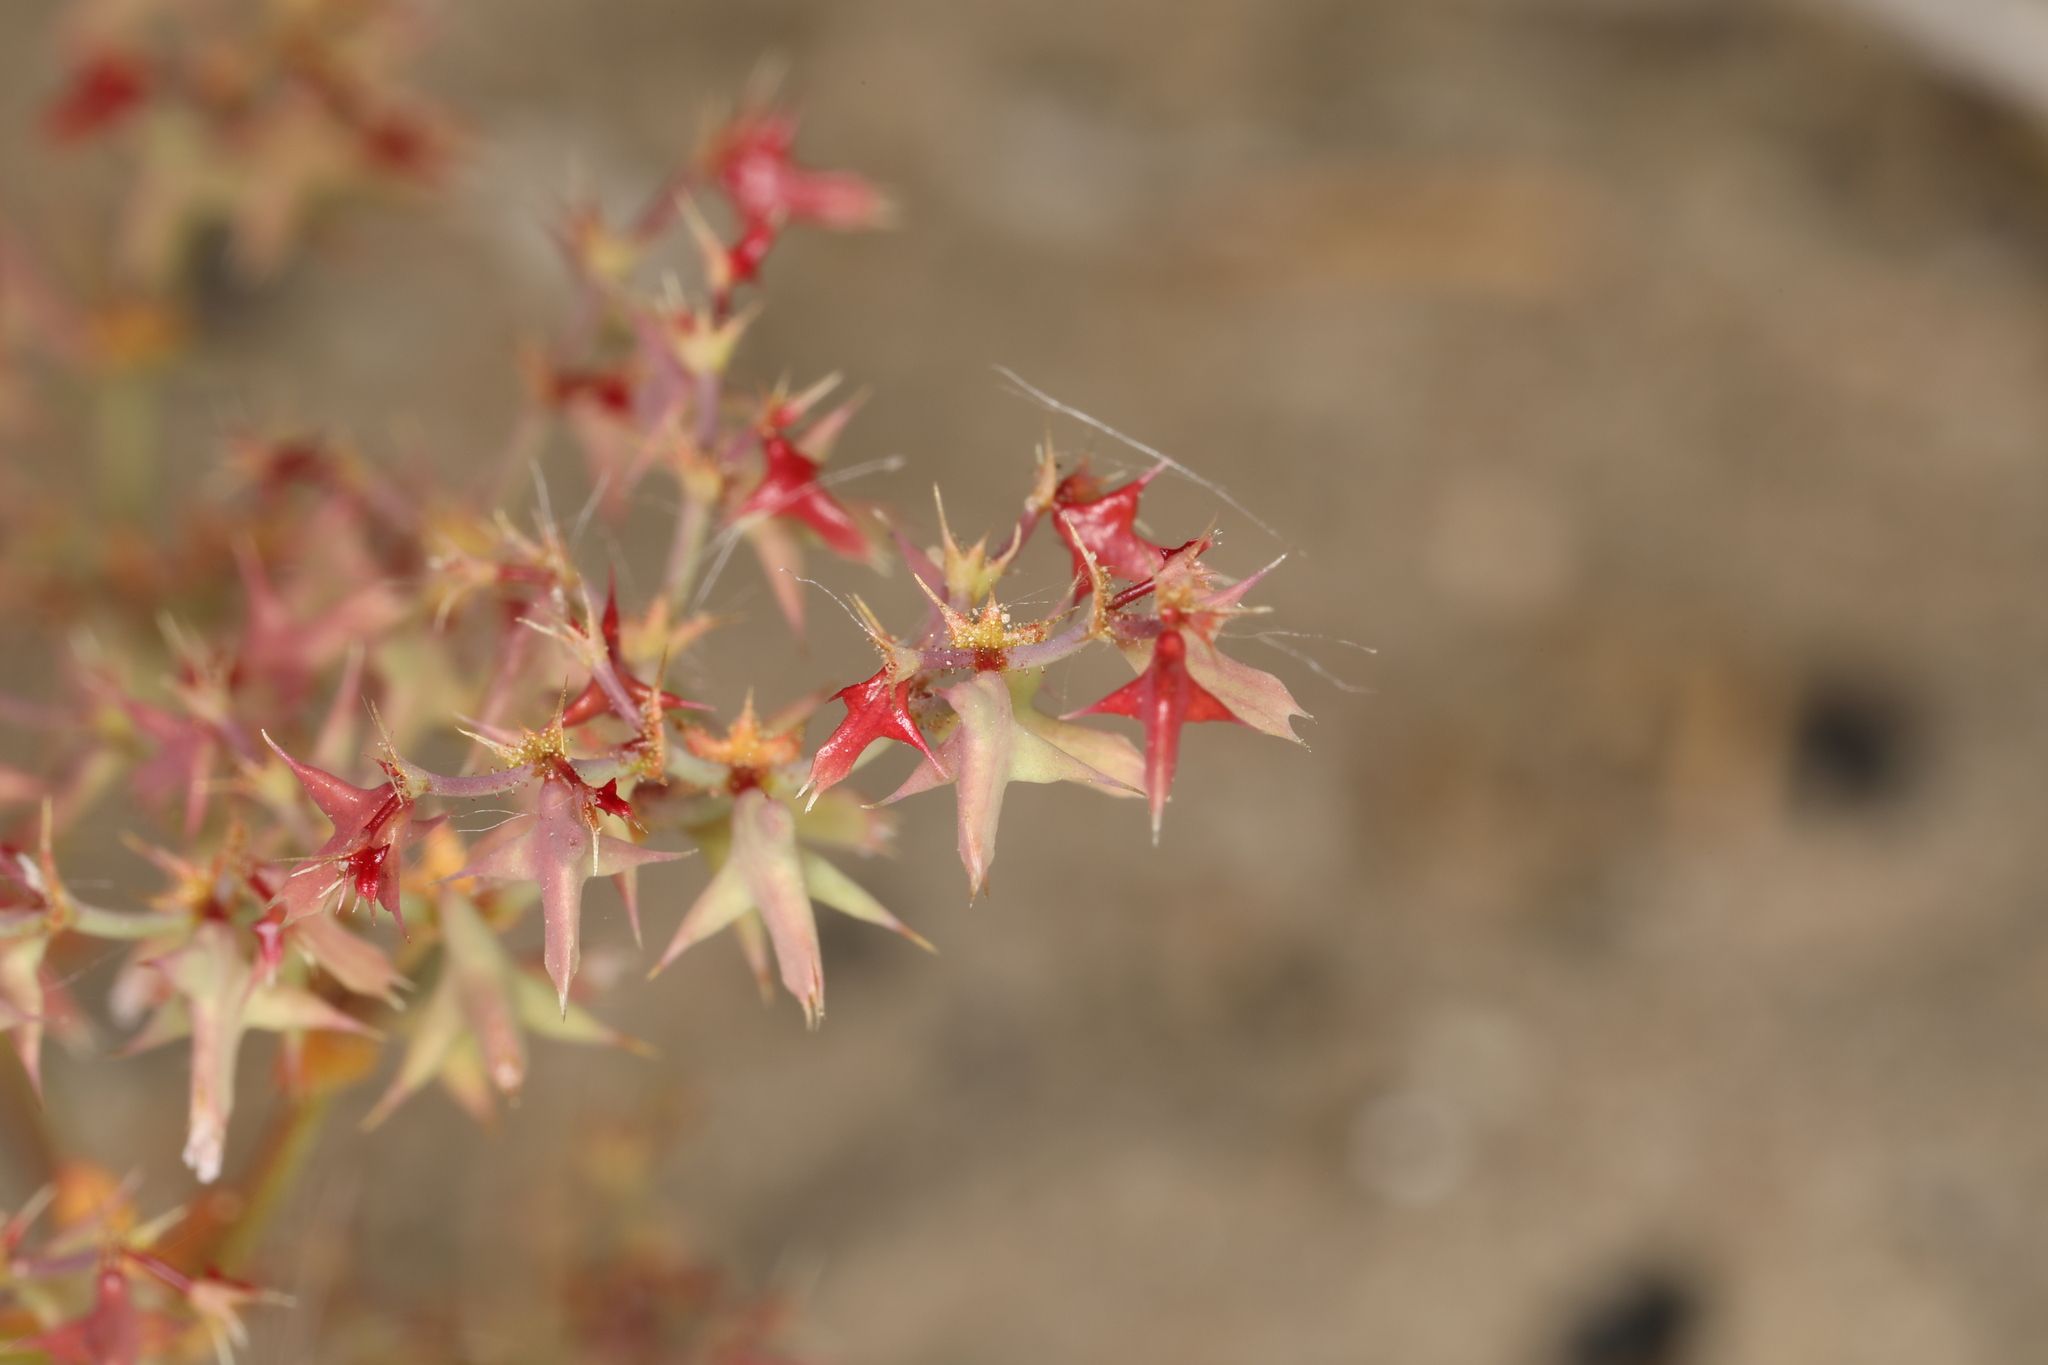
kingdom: Plantae
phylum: Tracheophyta
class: Magnoliopsida
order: Caryophyllales
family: Polygonaceae
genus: Centrostegia
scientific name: Centrostegia thurberi
